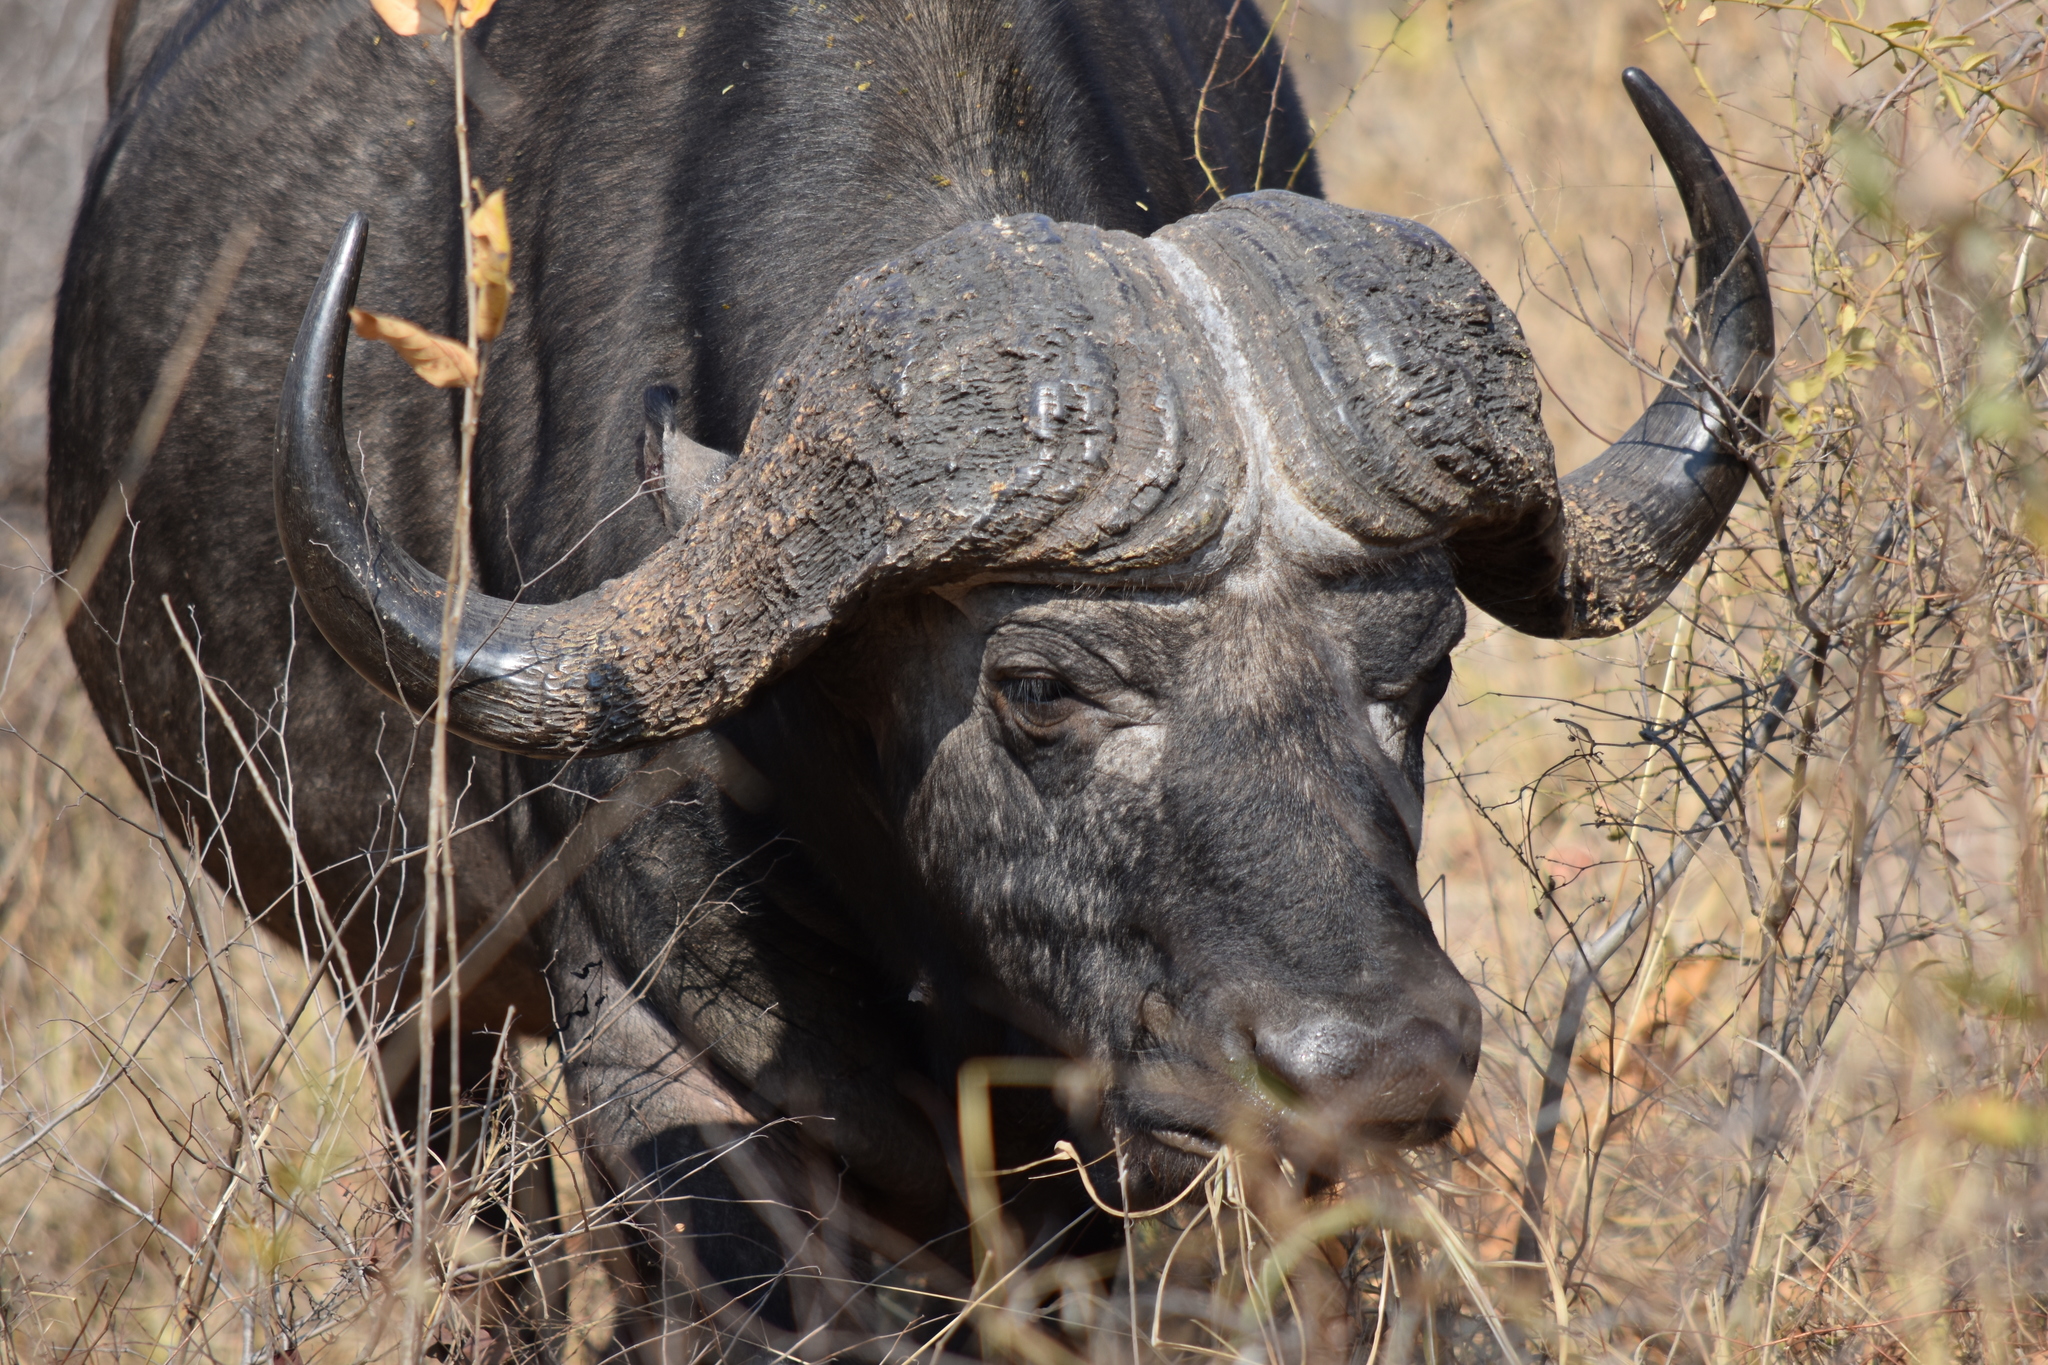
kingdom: Animalia
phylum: Chordata
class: Mammalia
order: Artiodactyla
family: Bovidae
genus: Syncerus
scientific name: Syncerus caffer
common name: African buffalo
